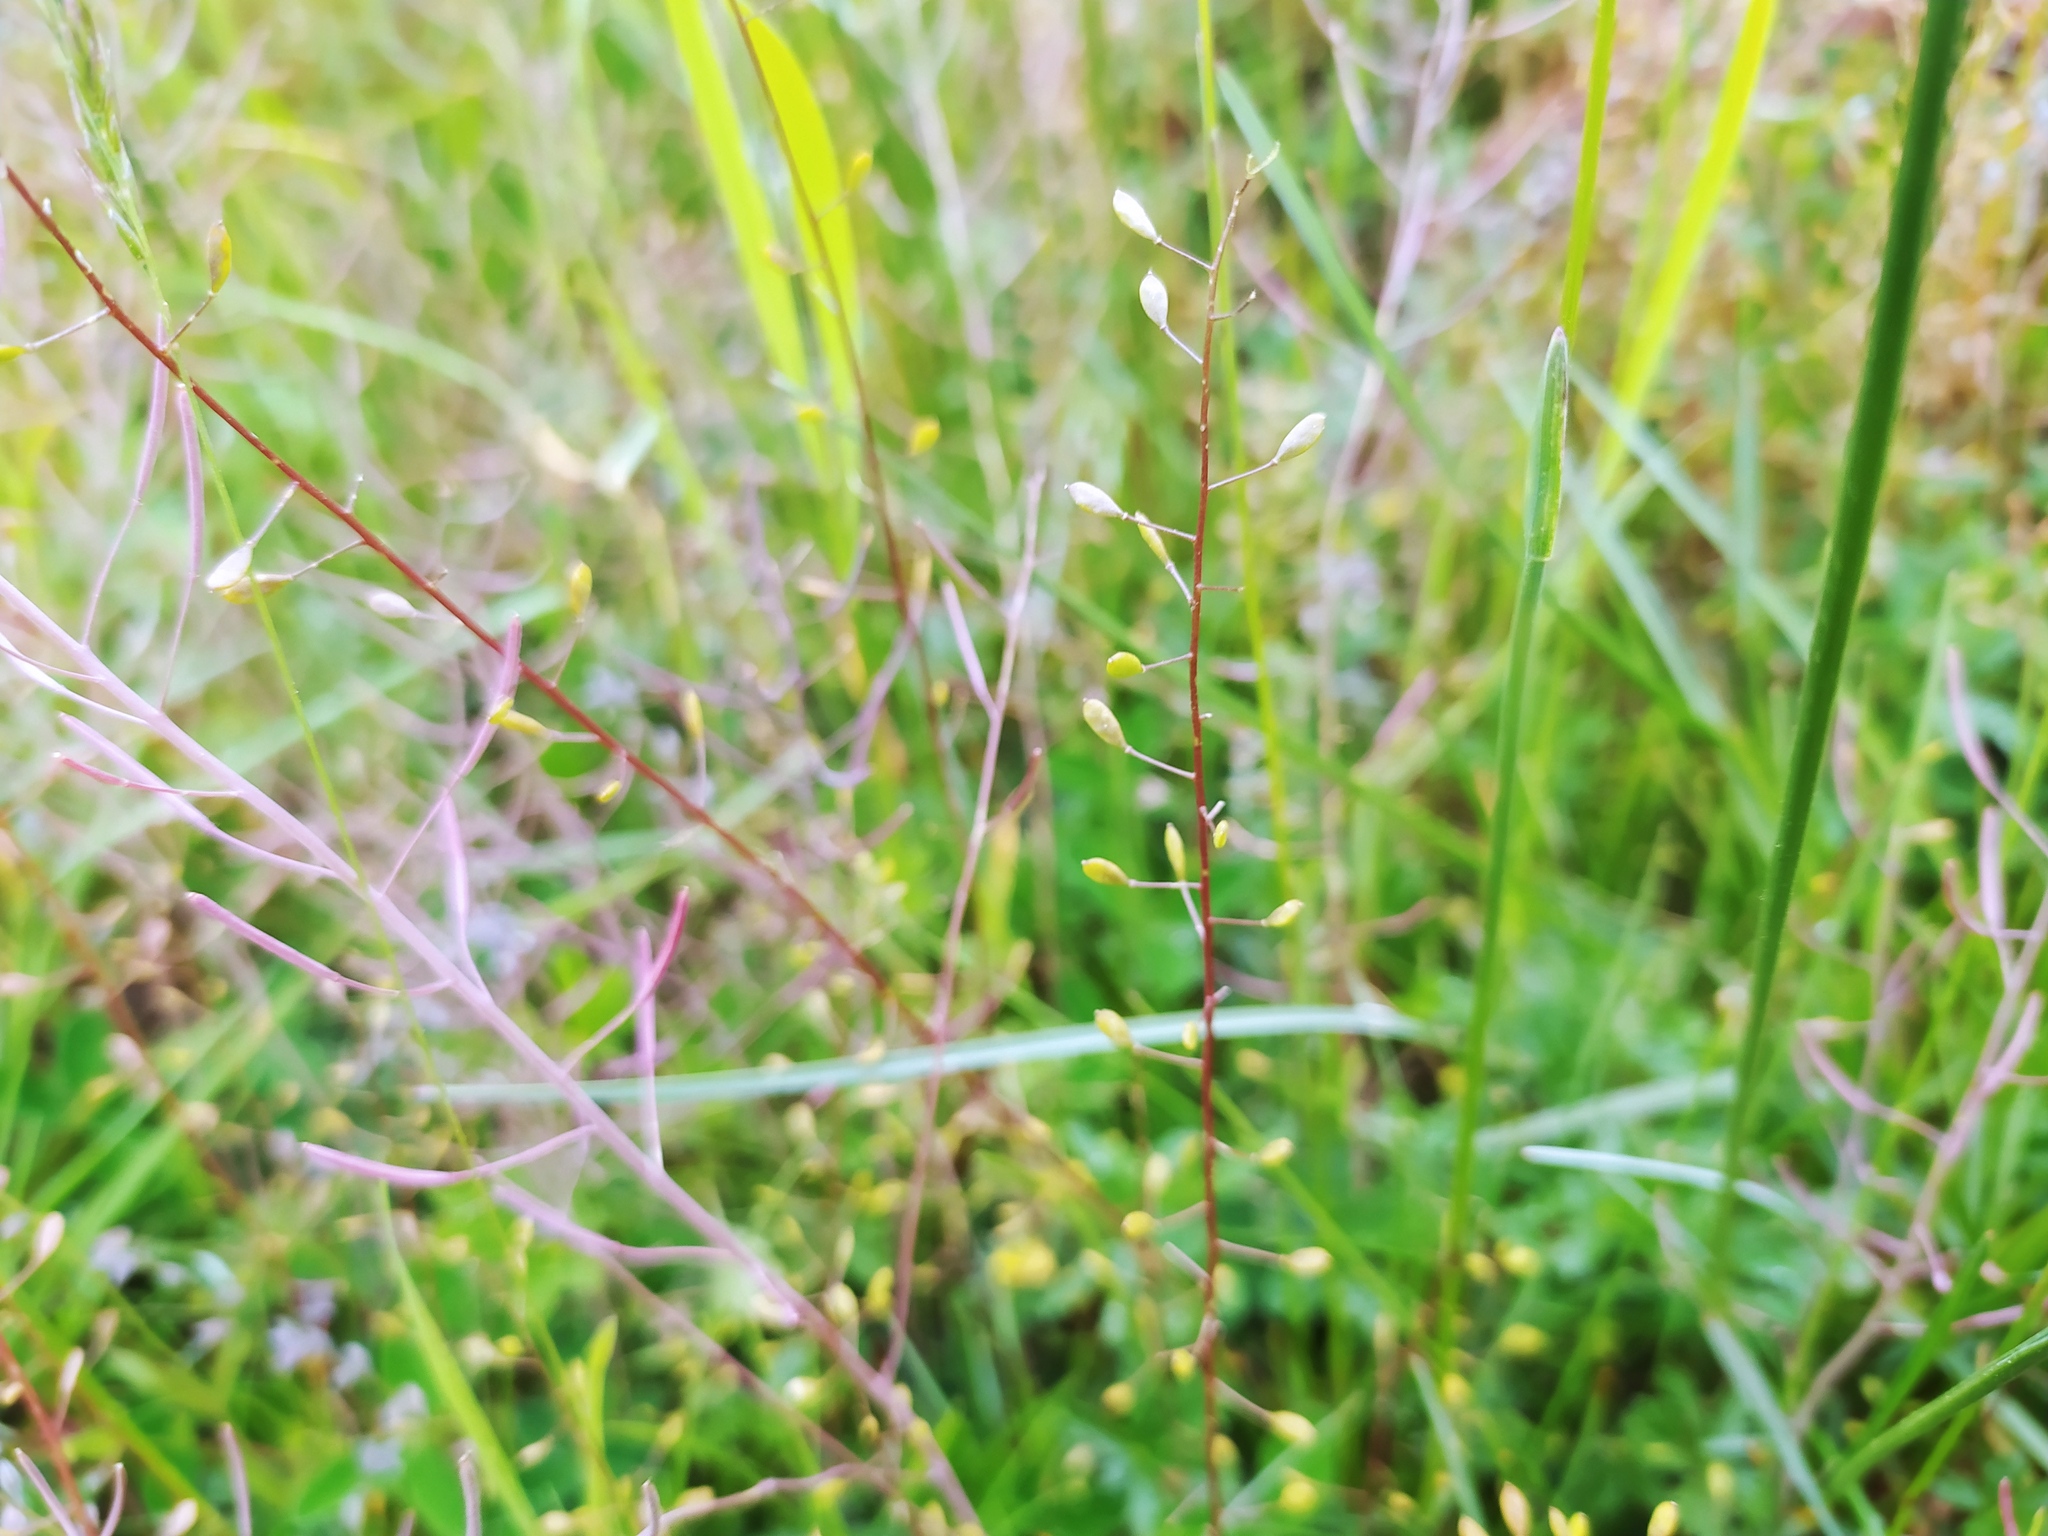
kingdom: Plantae
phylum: Tracheophyta
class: Magnoliopsida
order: Brassicales
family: Brassicaceae
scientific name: Brassicaceae
